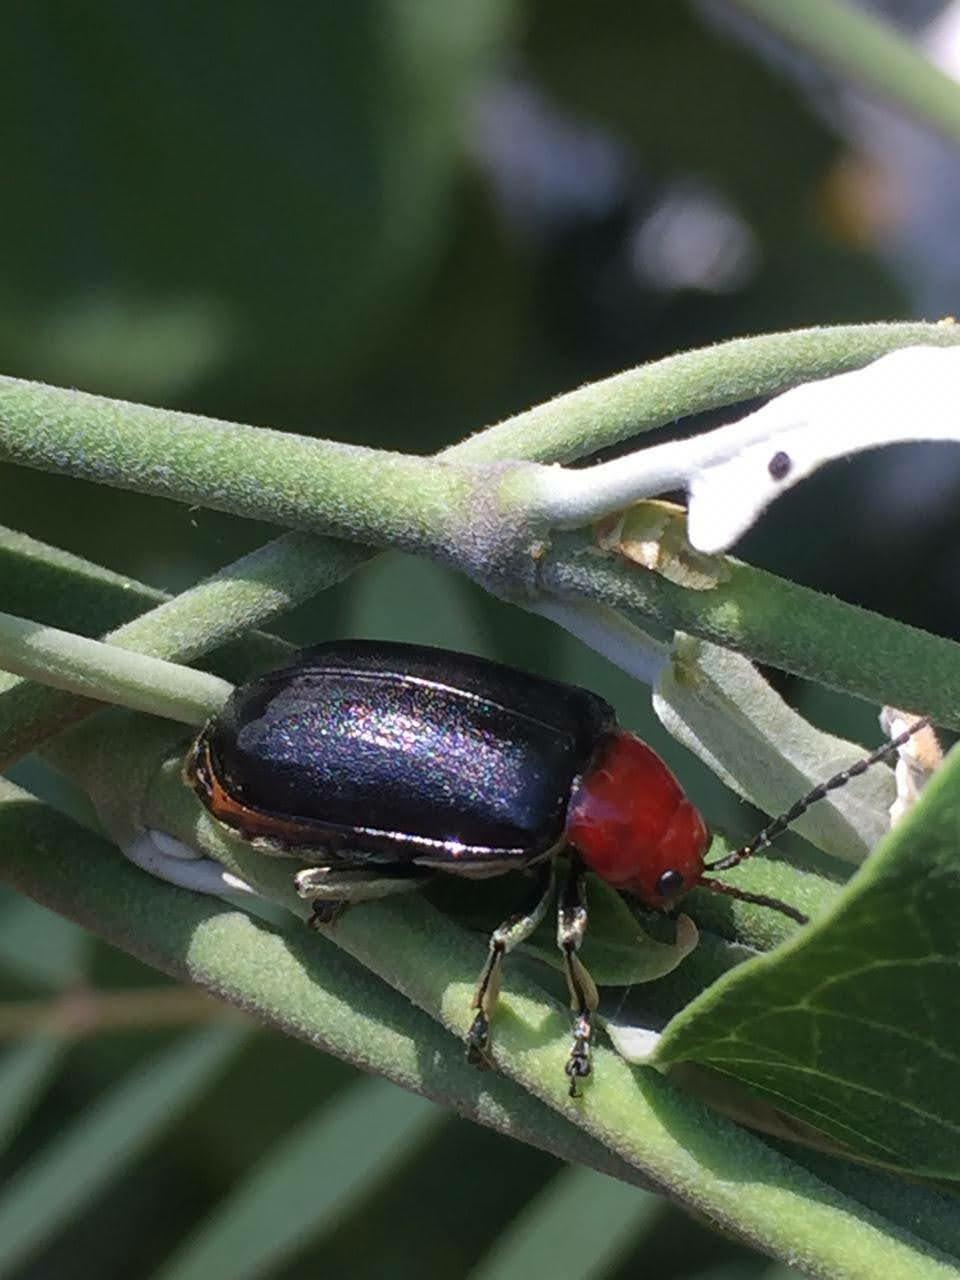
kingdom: Animalia
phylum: Arthropoda
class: Insecta
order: Coleoptera
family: Chrysomelidae
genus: Cacoscelis
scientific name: Cacoscelis
